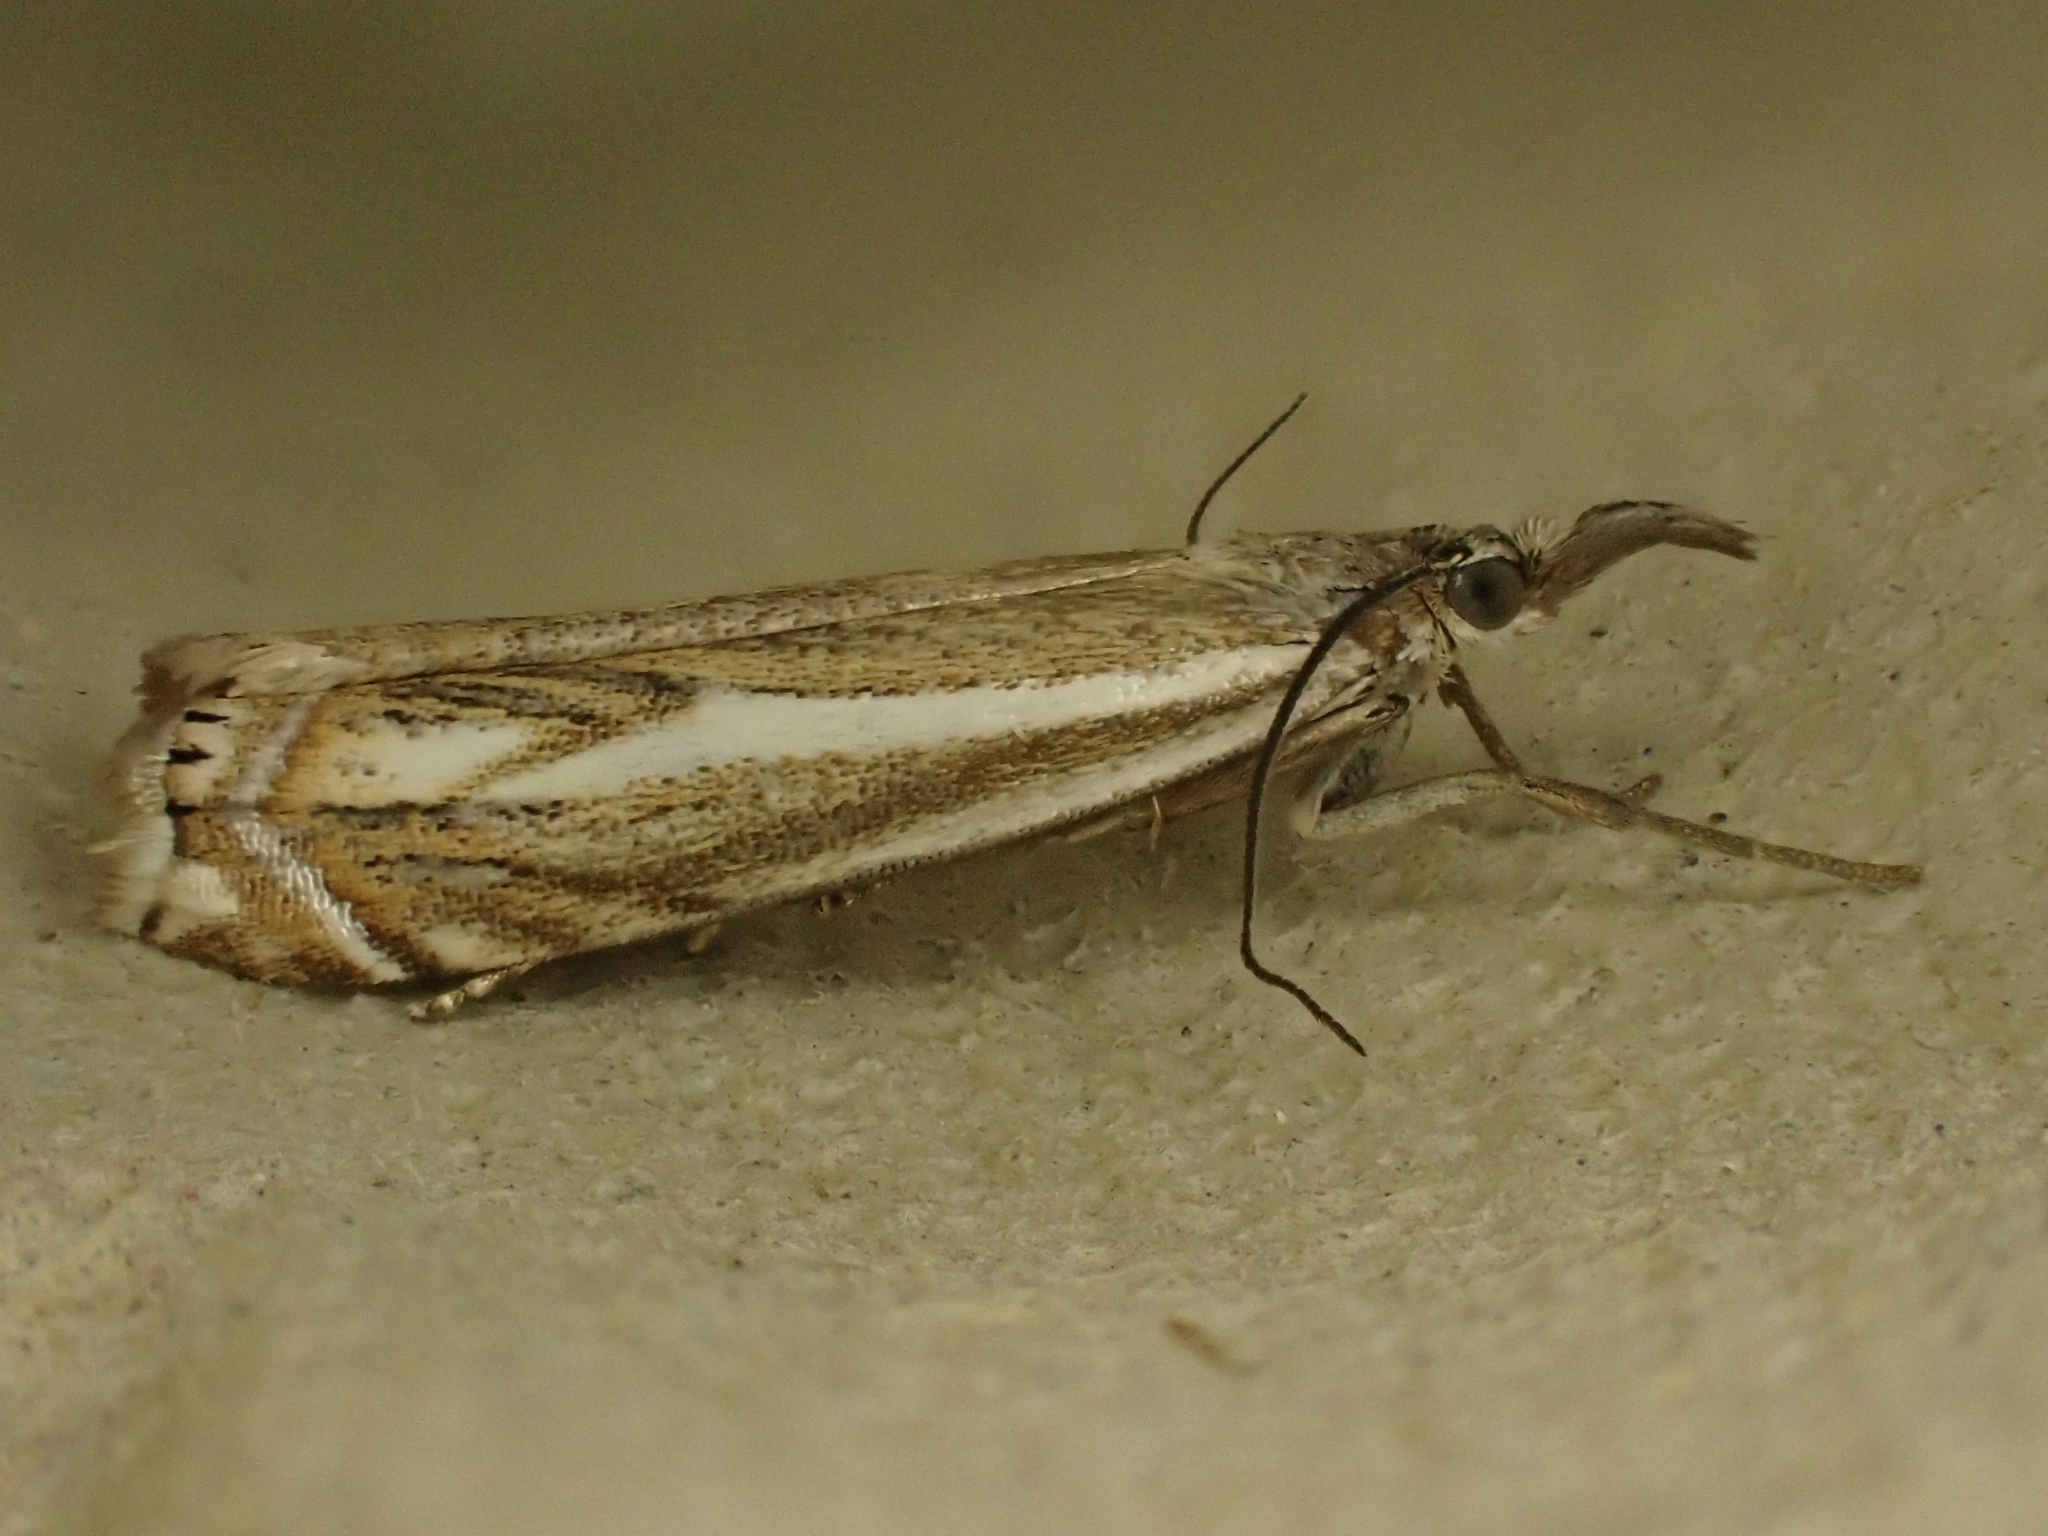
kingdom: Animalia
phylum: Arthropoda
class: Insecta
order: Lepidoptera
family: Crambidae
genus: Crambus
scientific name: Crambus nemorella
